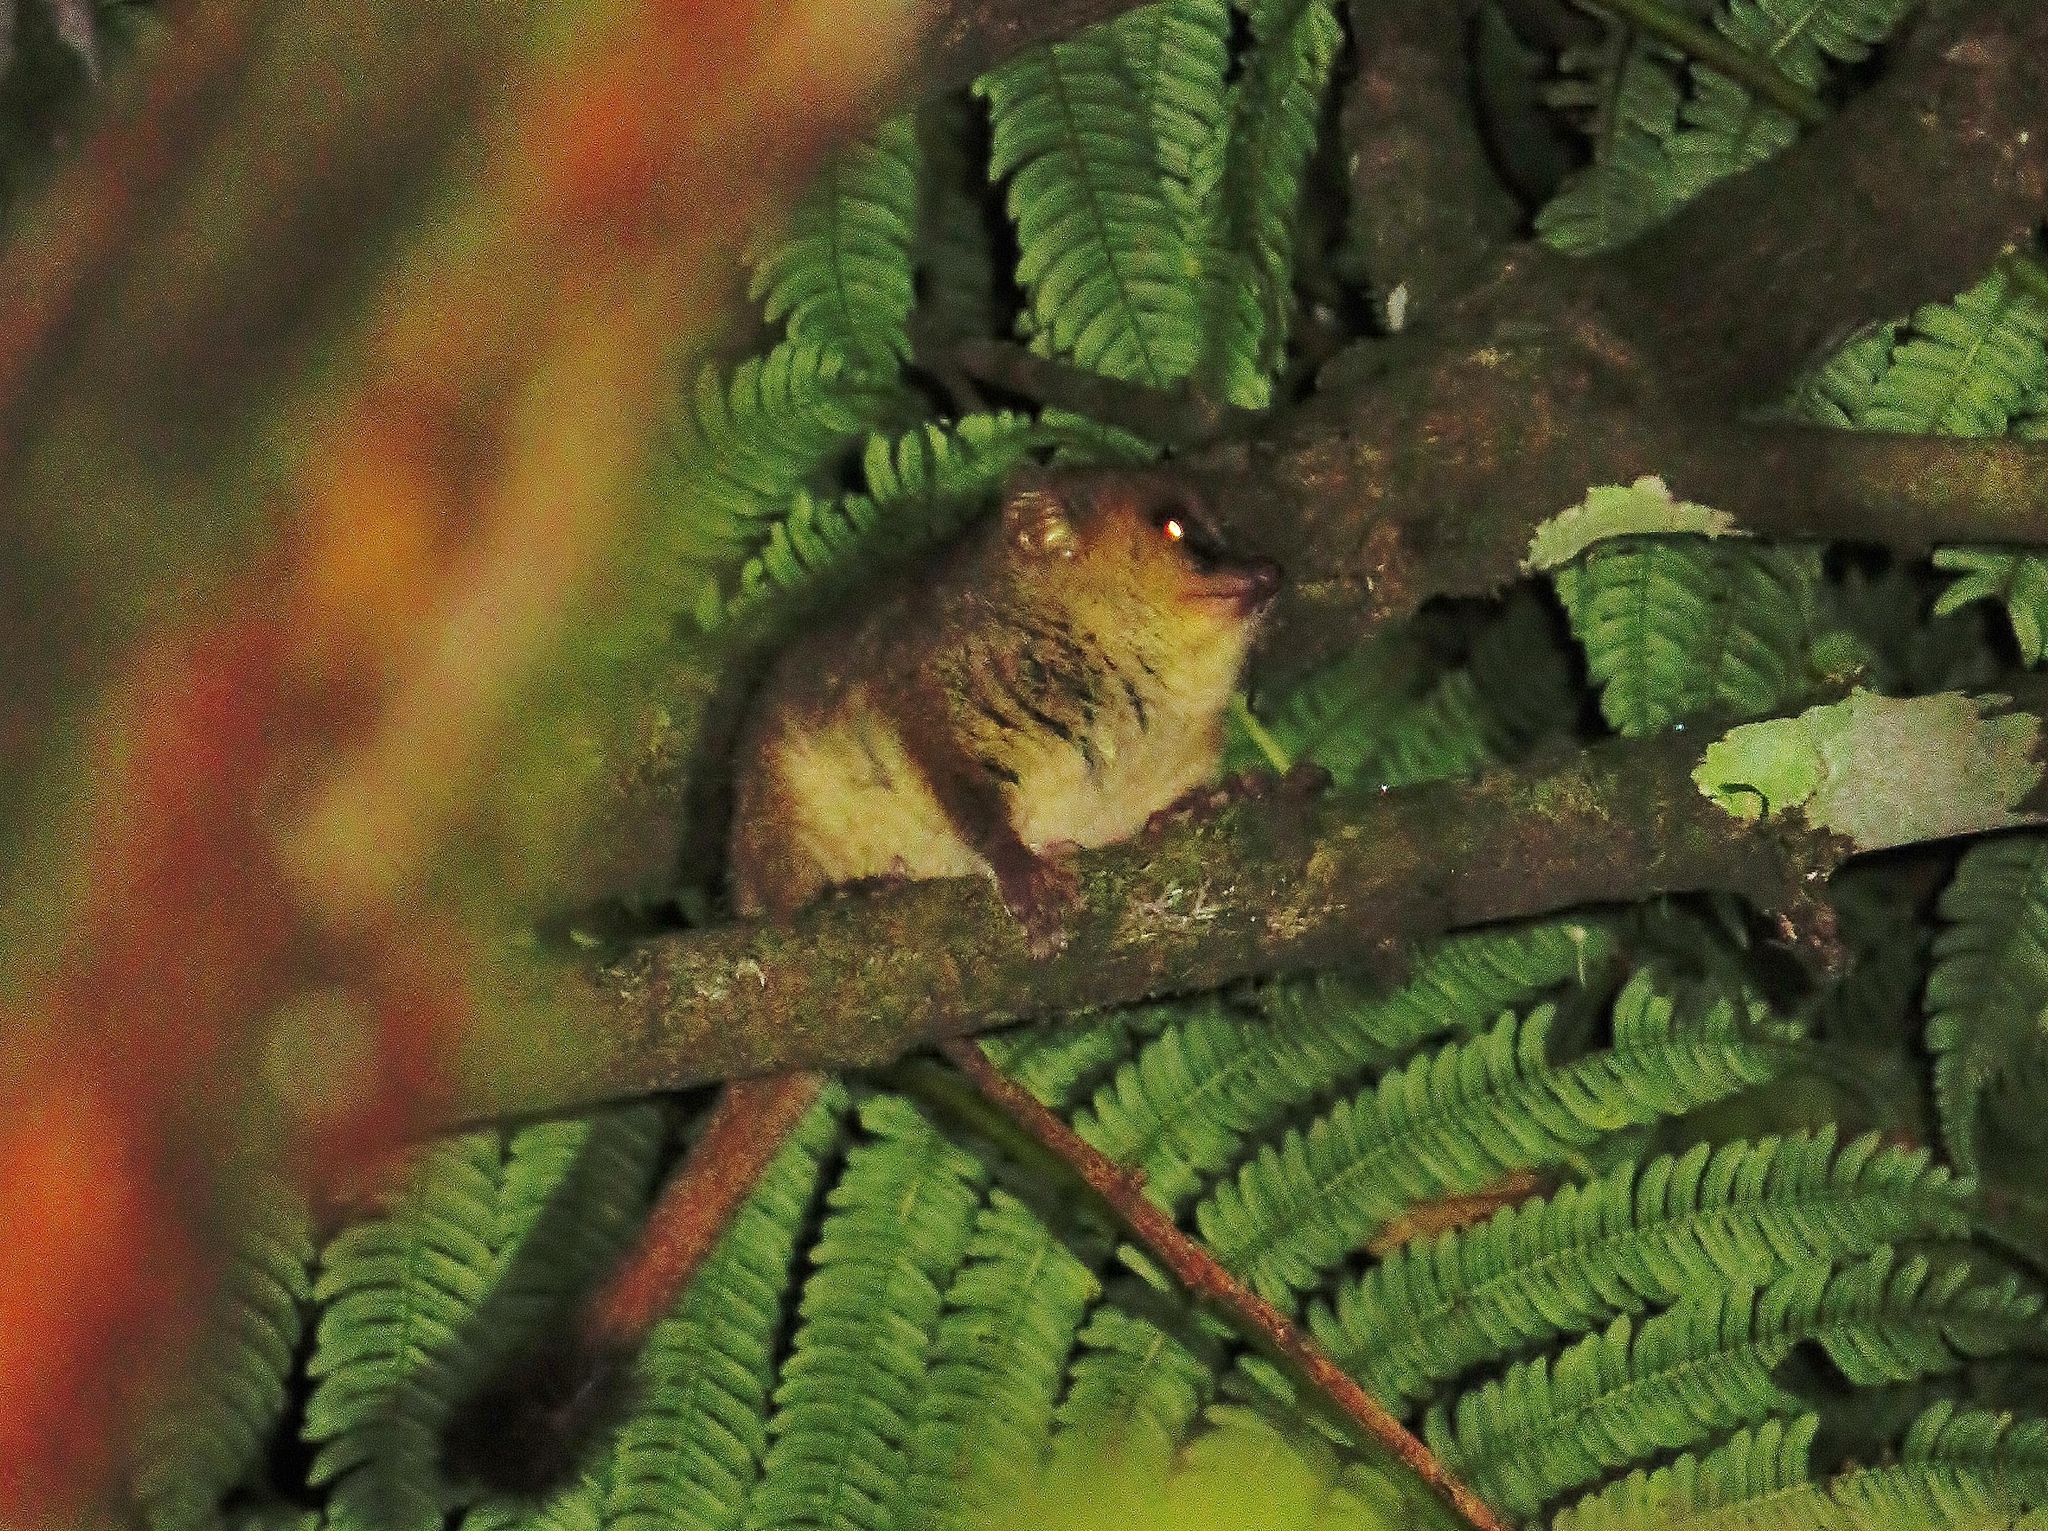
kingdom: Animalia
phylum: Chordata
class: Mammalia
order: Primates
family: Cheirogaleidae
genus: Microcebus
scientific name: Microcebus rufus
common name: Brown mouse lemur
